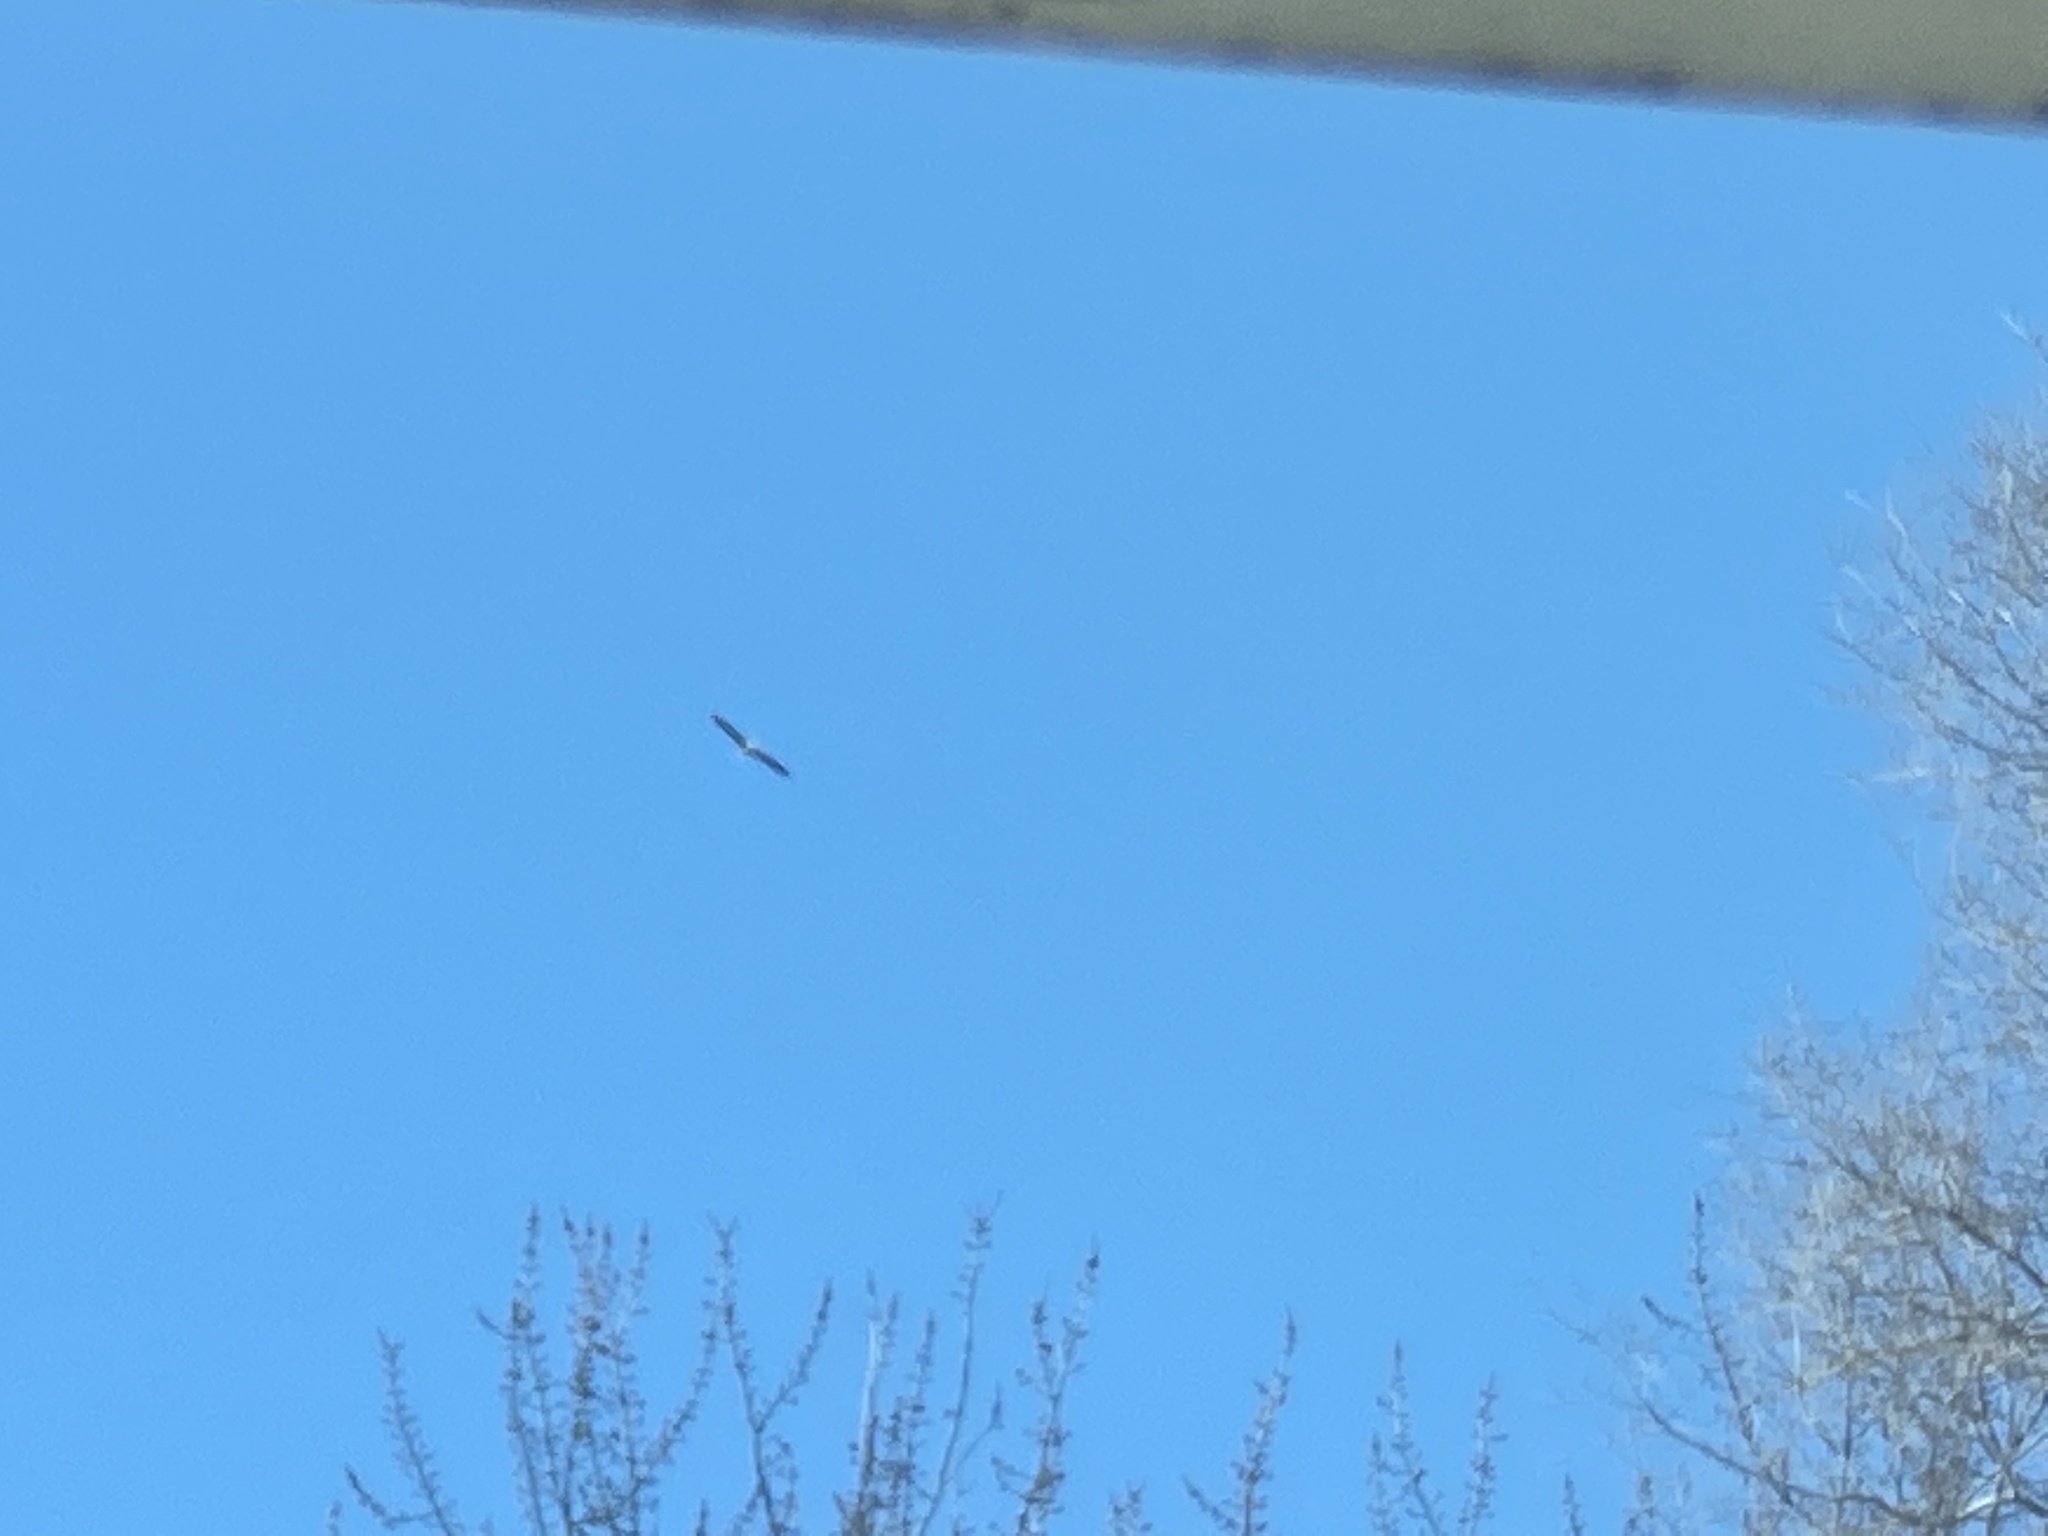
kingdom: Animalia
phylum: Chordata
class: Aves
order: Accipitriformes
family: Accipitridae
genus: Haliaeetus
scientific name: Haliaeetus leucocephalus
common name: Bald eagle
